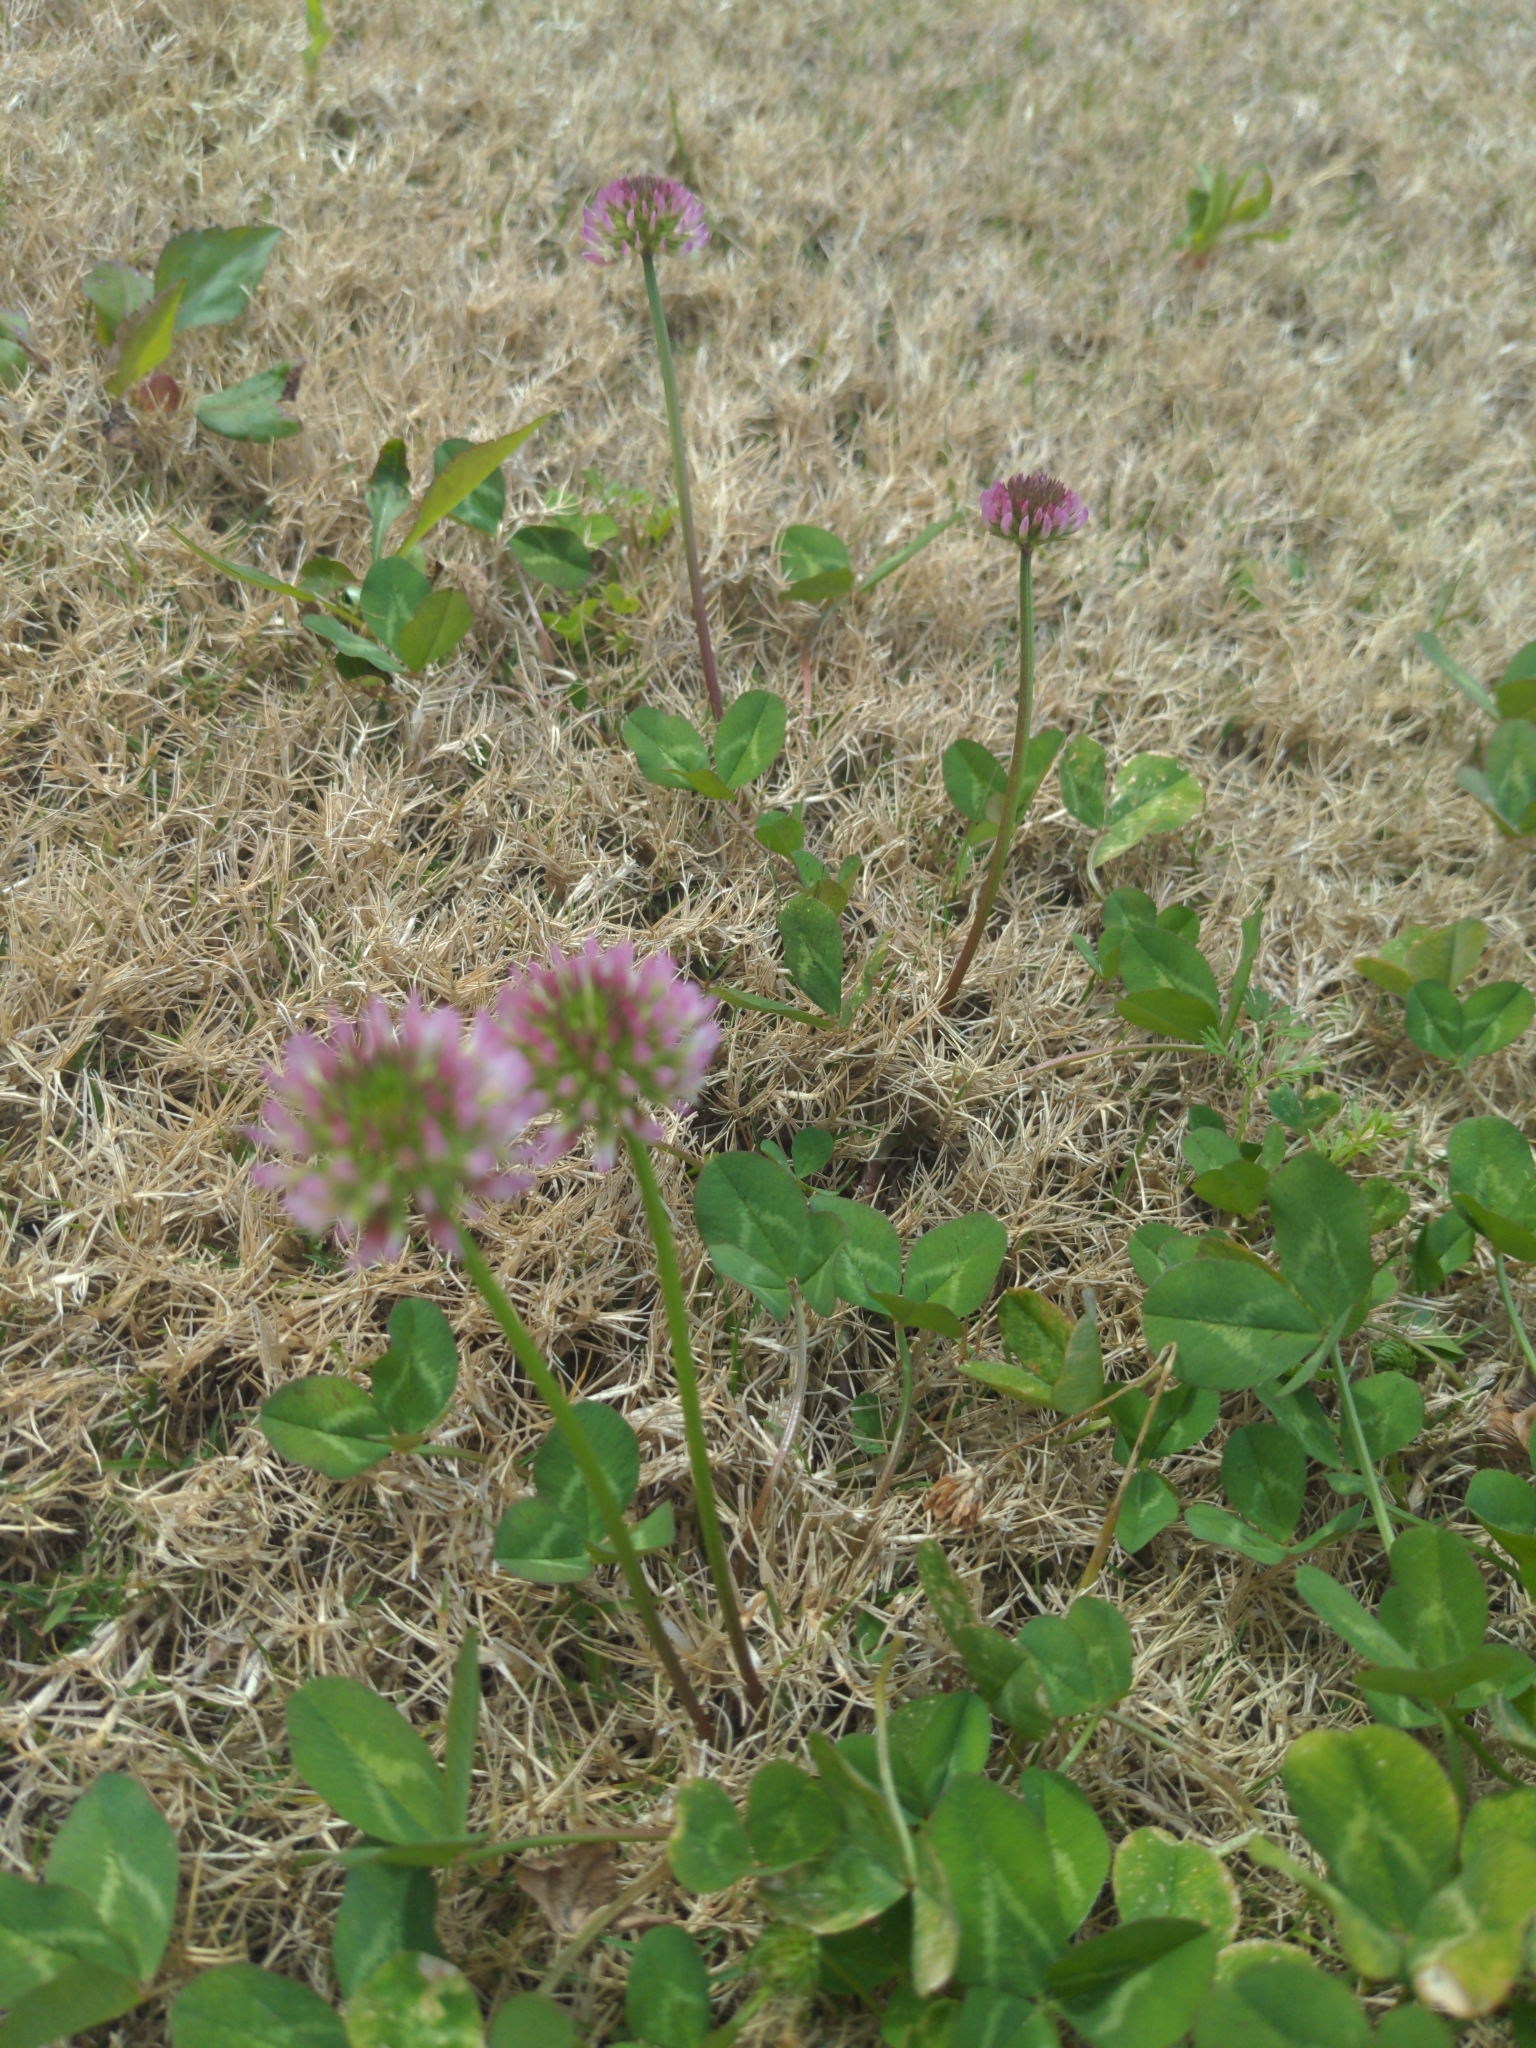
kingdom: Plantae
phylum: Tracheophyta
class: Magnoliopsida
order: Fabales
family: Fabaceae
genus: Trifolium
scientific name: Trifolium repens
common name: White clover
